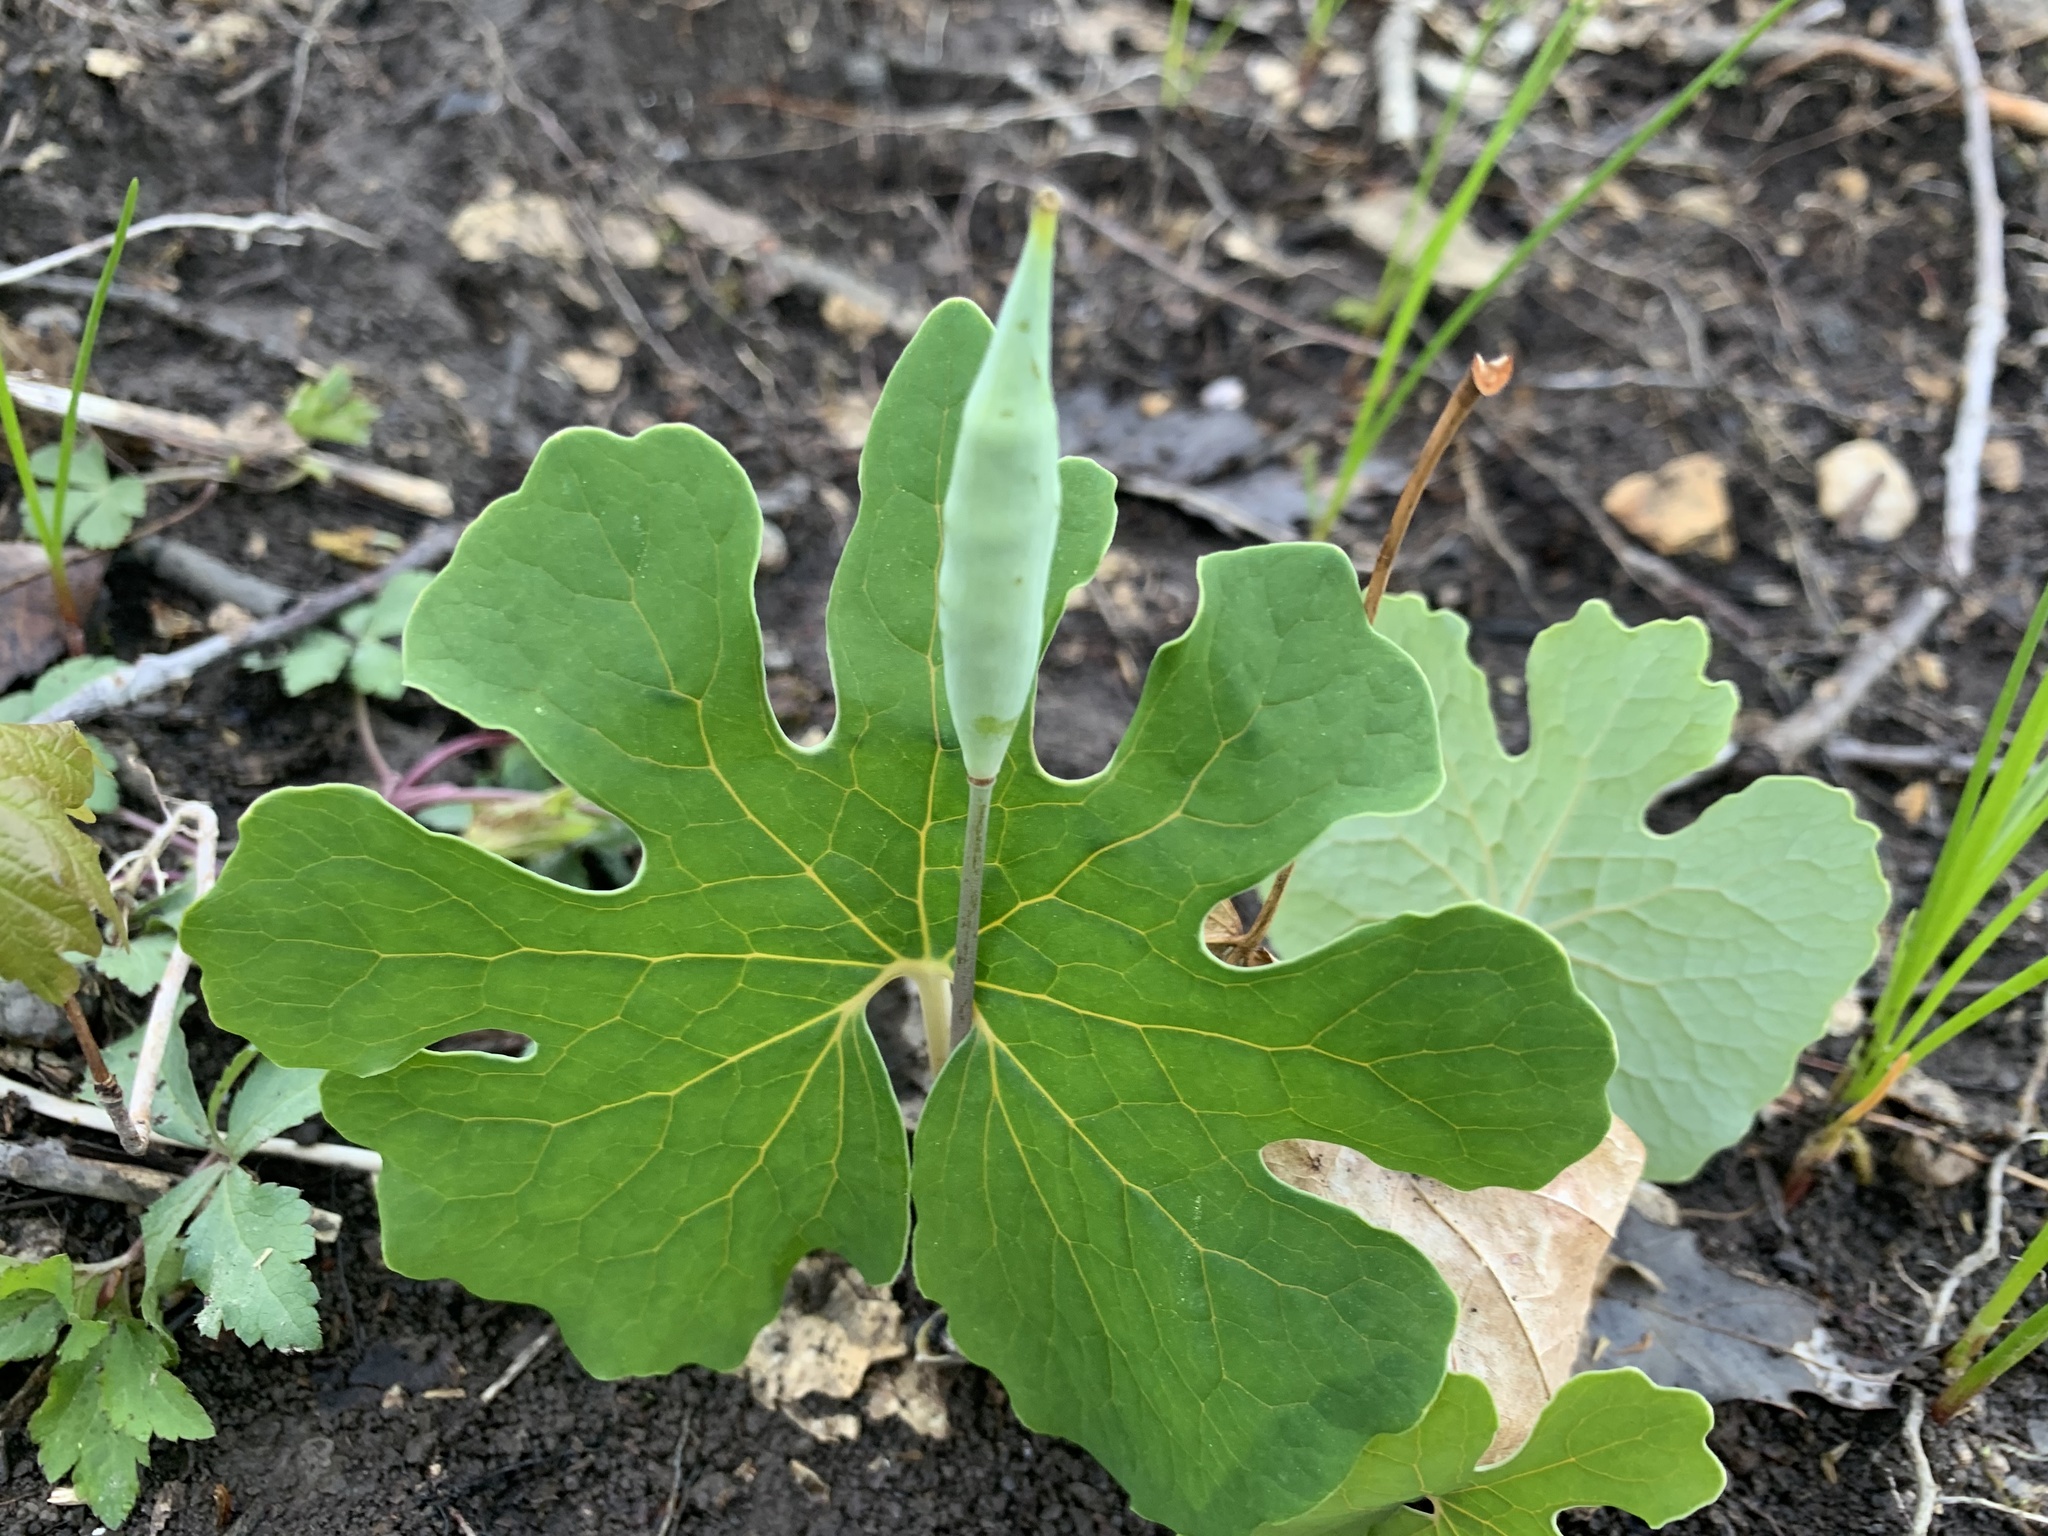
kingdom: Plantae
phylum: Tracheophyta
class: Magnoliopsida
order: Ranunculales
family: Papaveraceae
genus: Sanguinaria
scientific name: Sanguinaria canadensis
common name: Bloodroot
